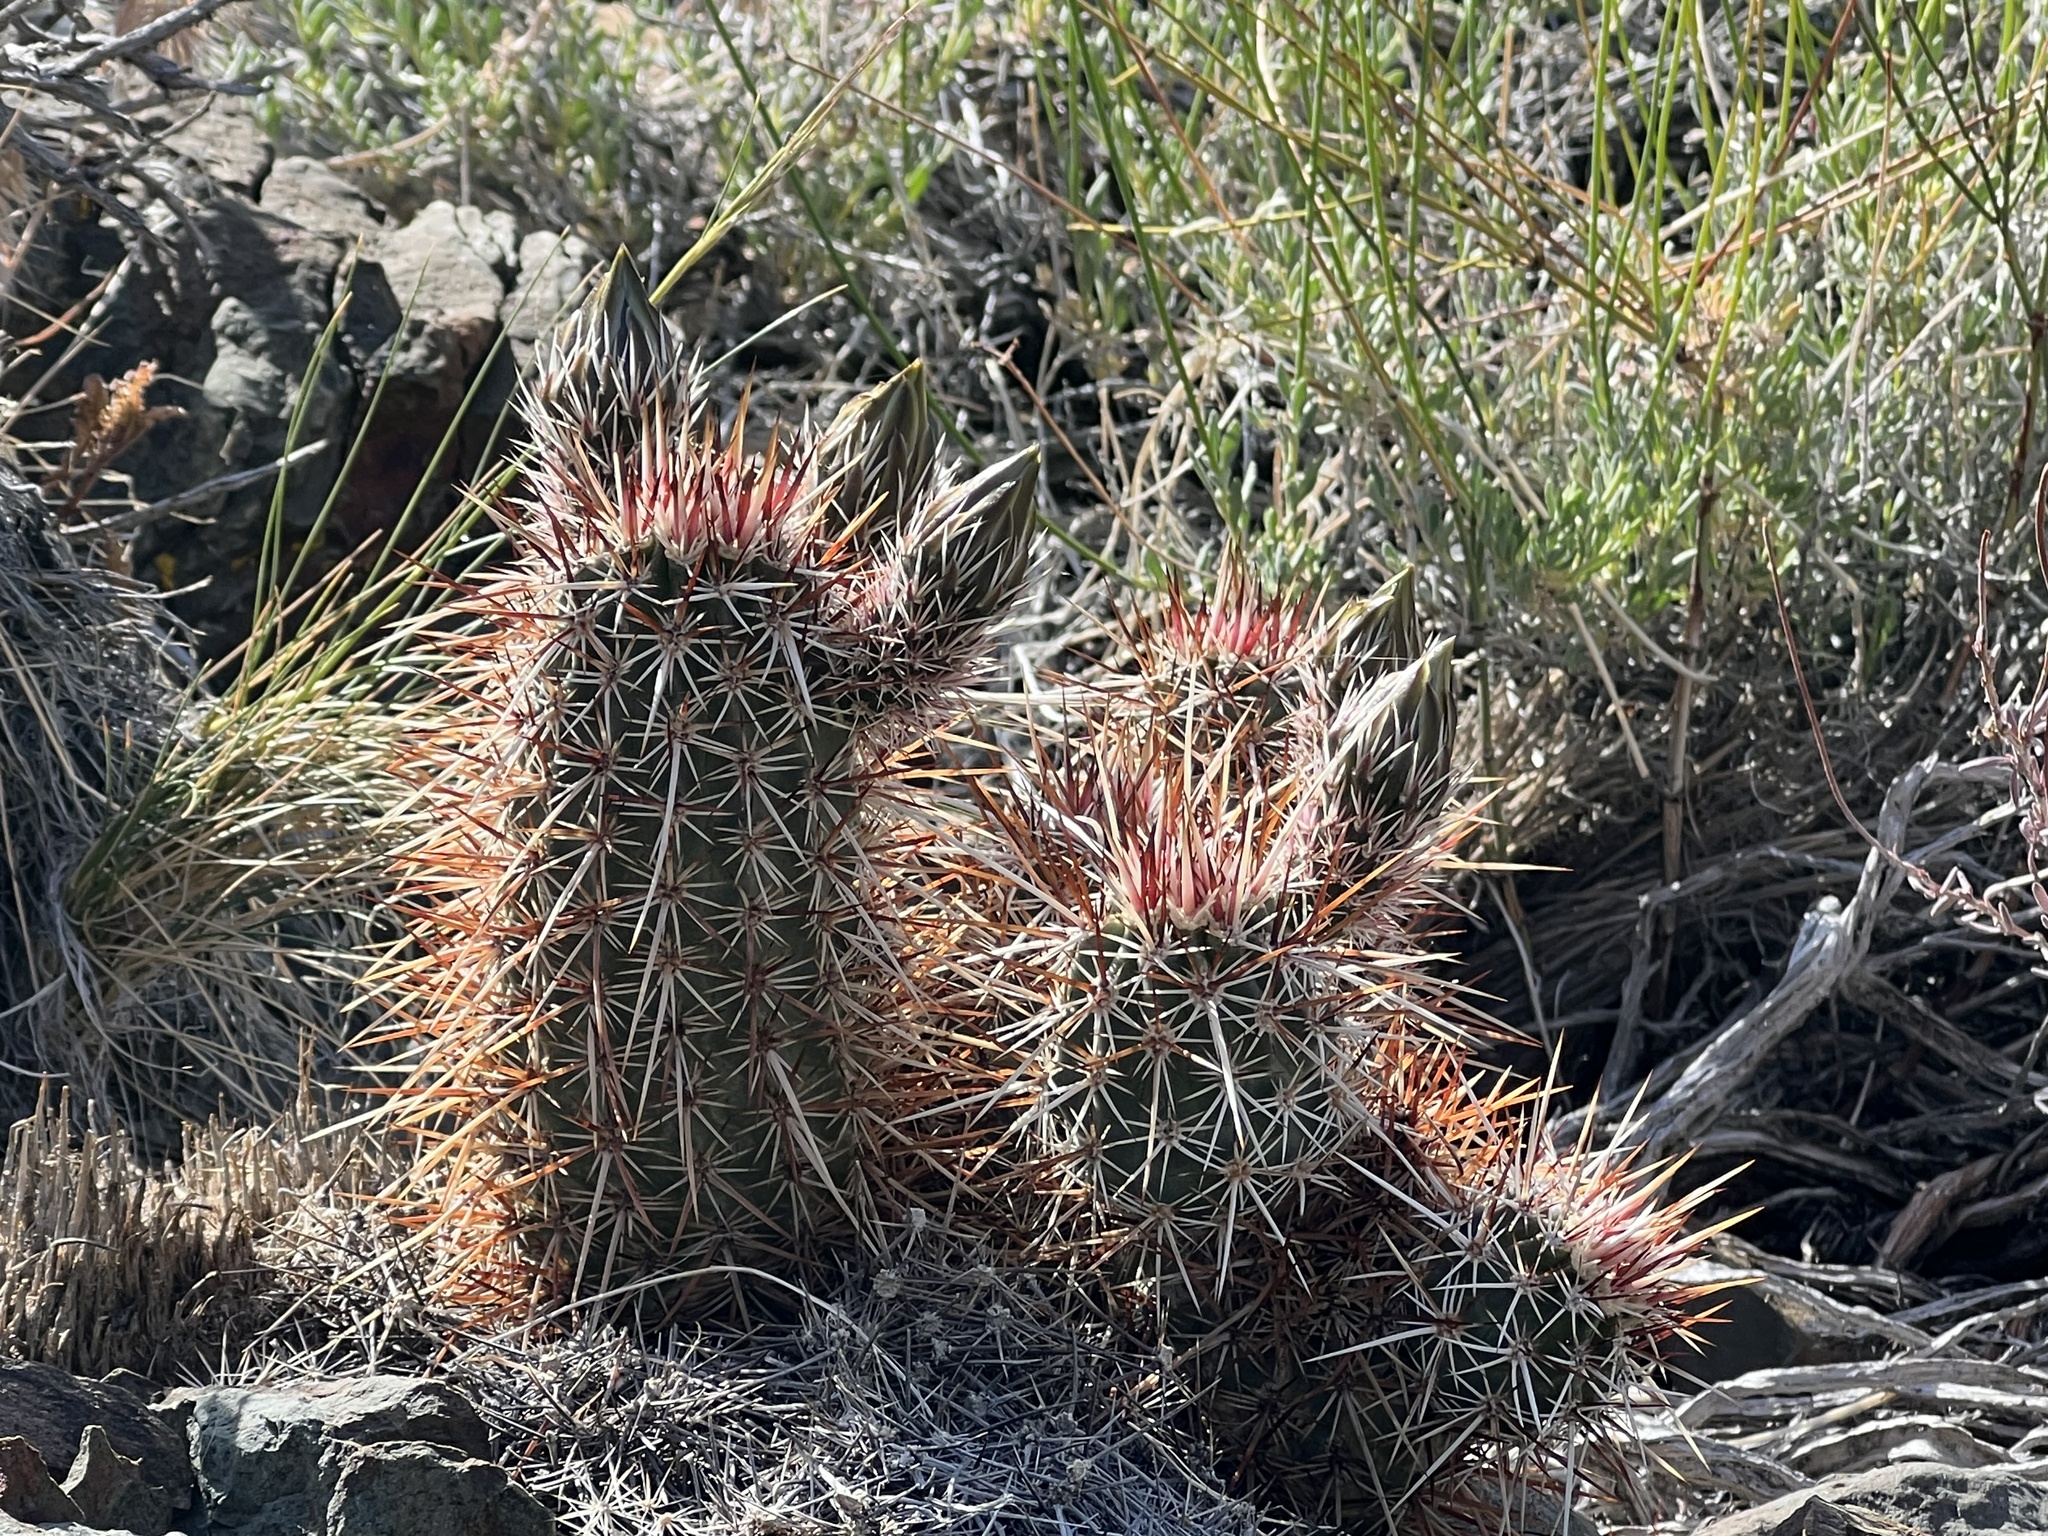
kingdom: Plantae
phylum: Tracheophyta
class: Magnoliopsida
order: Caryophyllales
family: Cactaceae
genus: Echinocereus
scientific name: Echinocereus engelmannii
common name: Engelmann's hedgehog cactus
